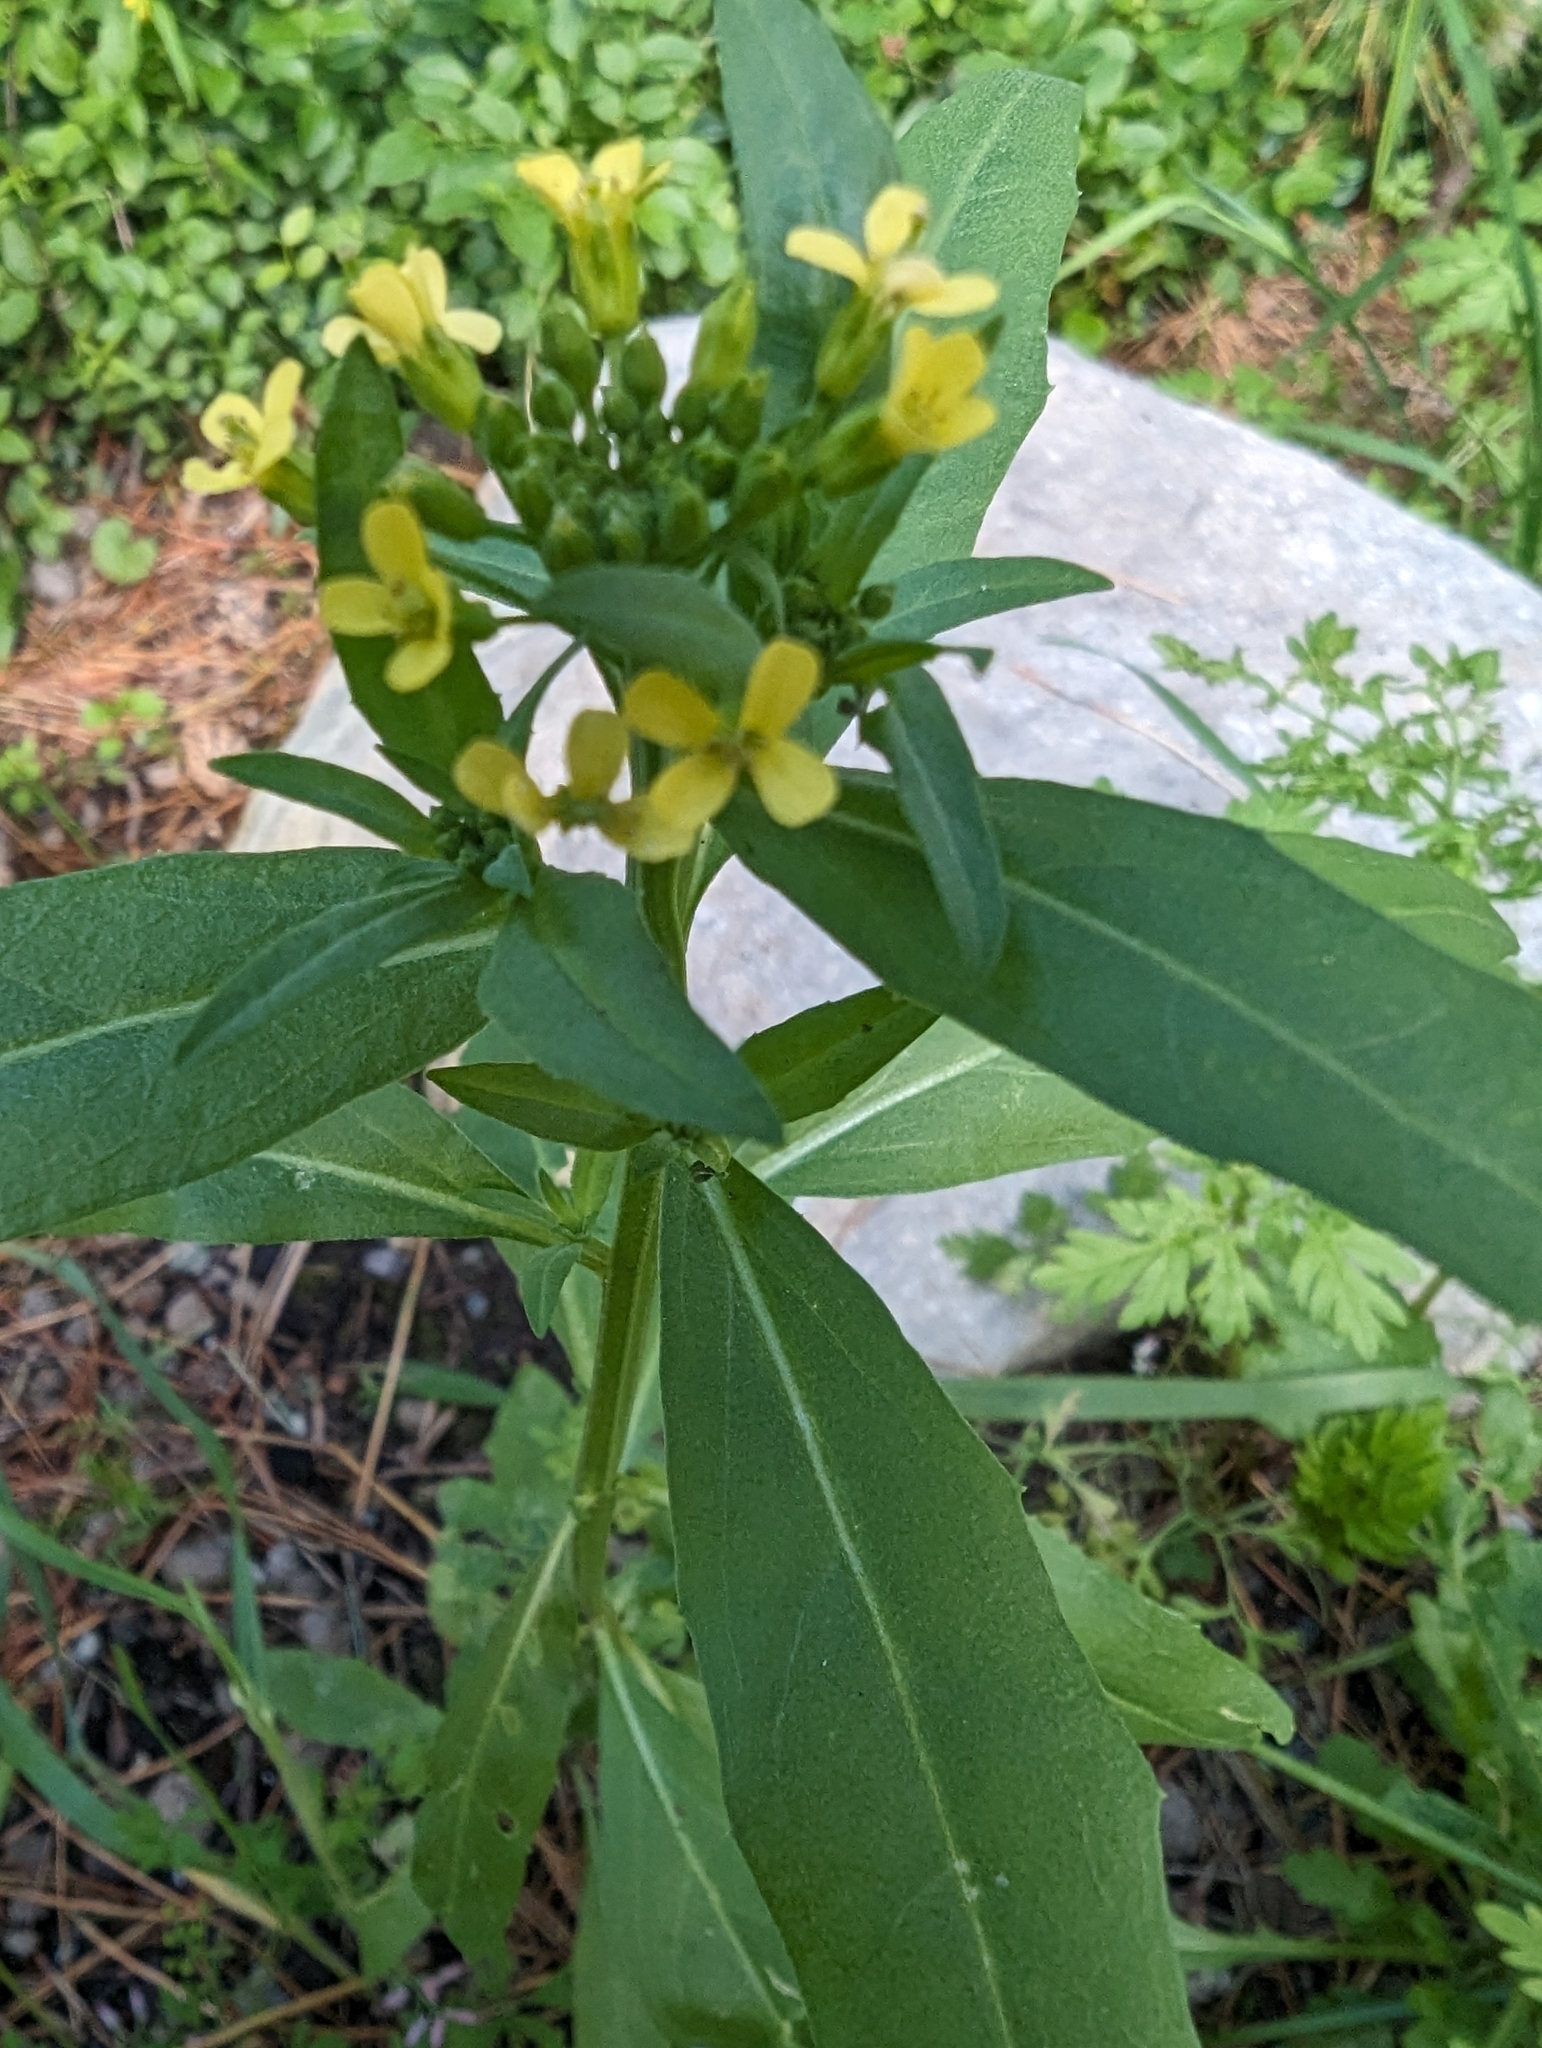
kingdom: Plantae
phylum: Tracheophyta
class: Magnoliopsida
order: Brassicales
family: Brassicaceae
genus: Erysimum
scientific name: Erysimum cheiranthoides
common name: Treacle mustard
